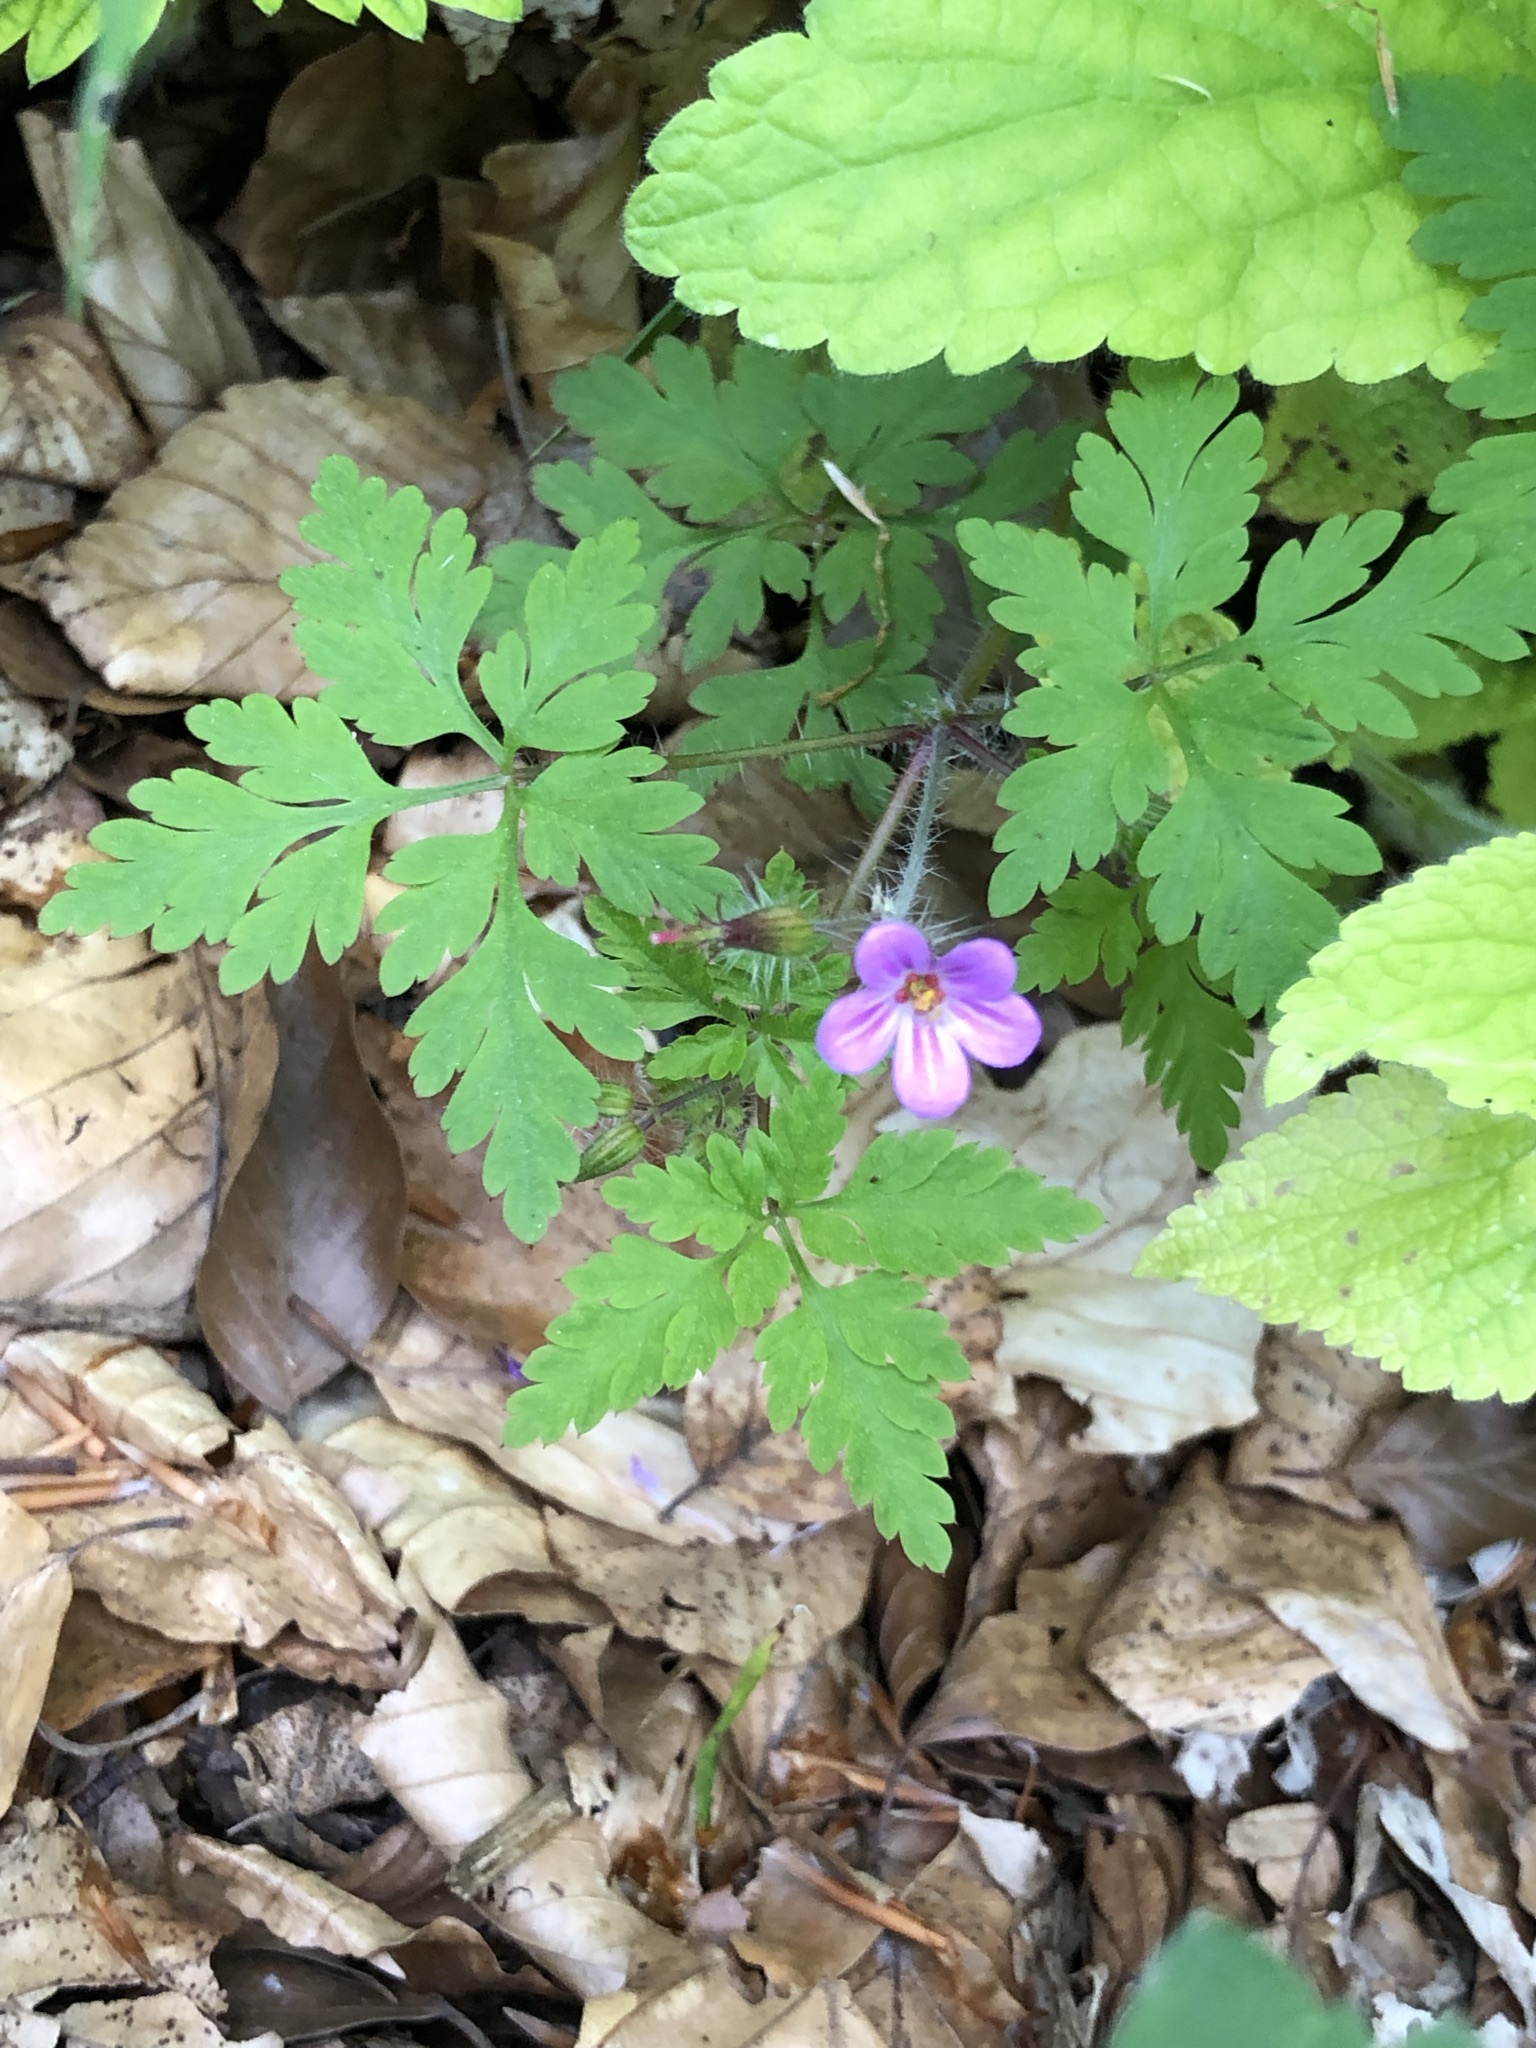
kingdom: Plantae
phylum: Tracheophyta
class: Magnoliopsida
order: Geraniales
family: Geraniaceae
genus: Geranium
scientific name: Geranium robertianum
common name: Herb-robert
